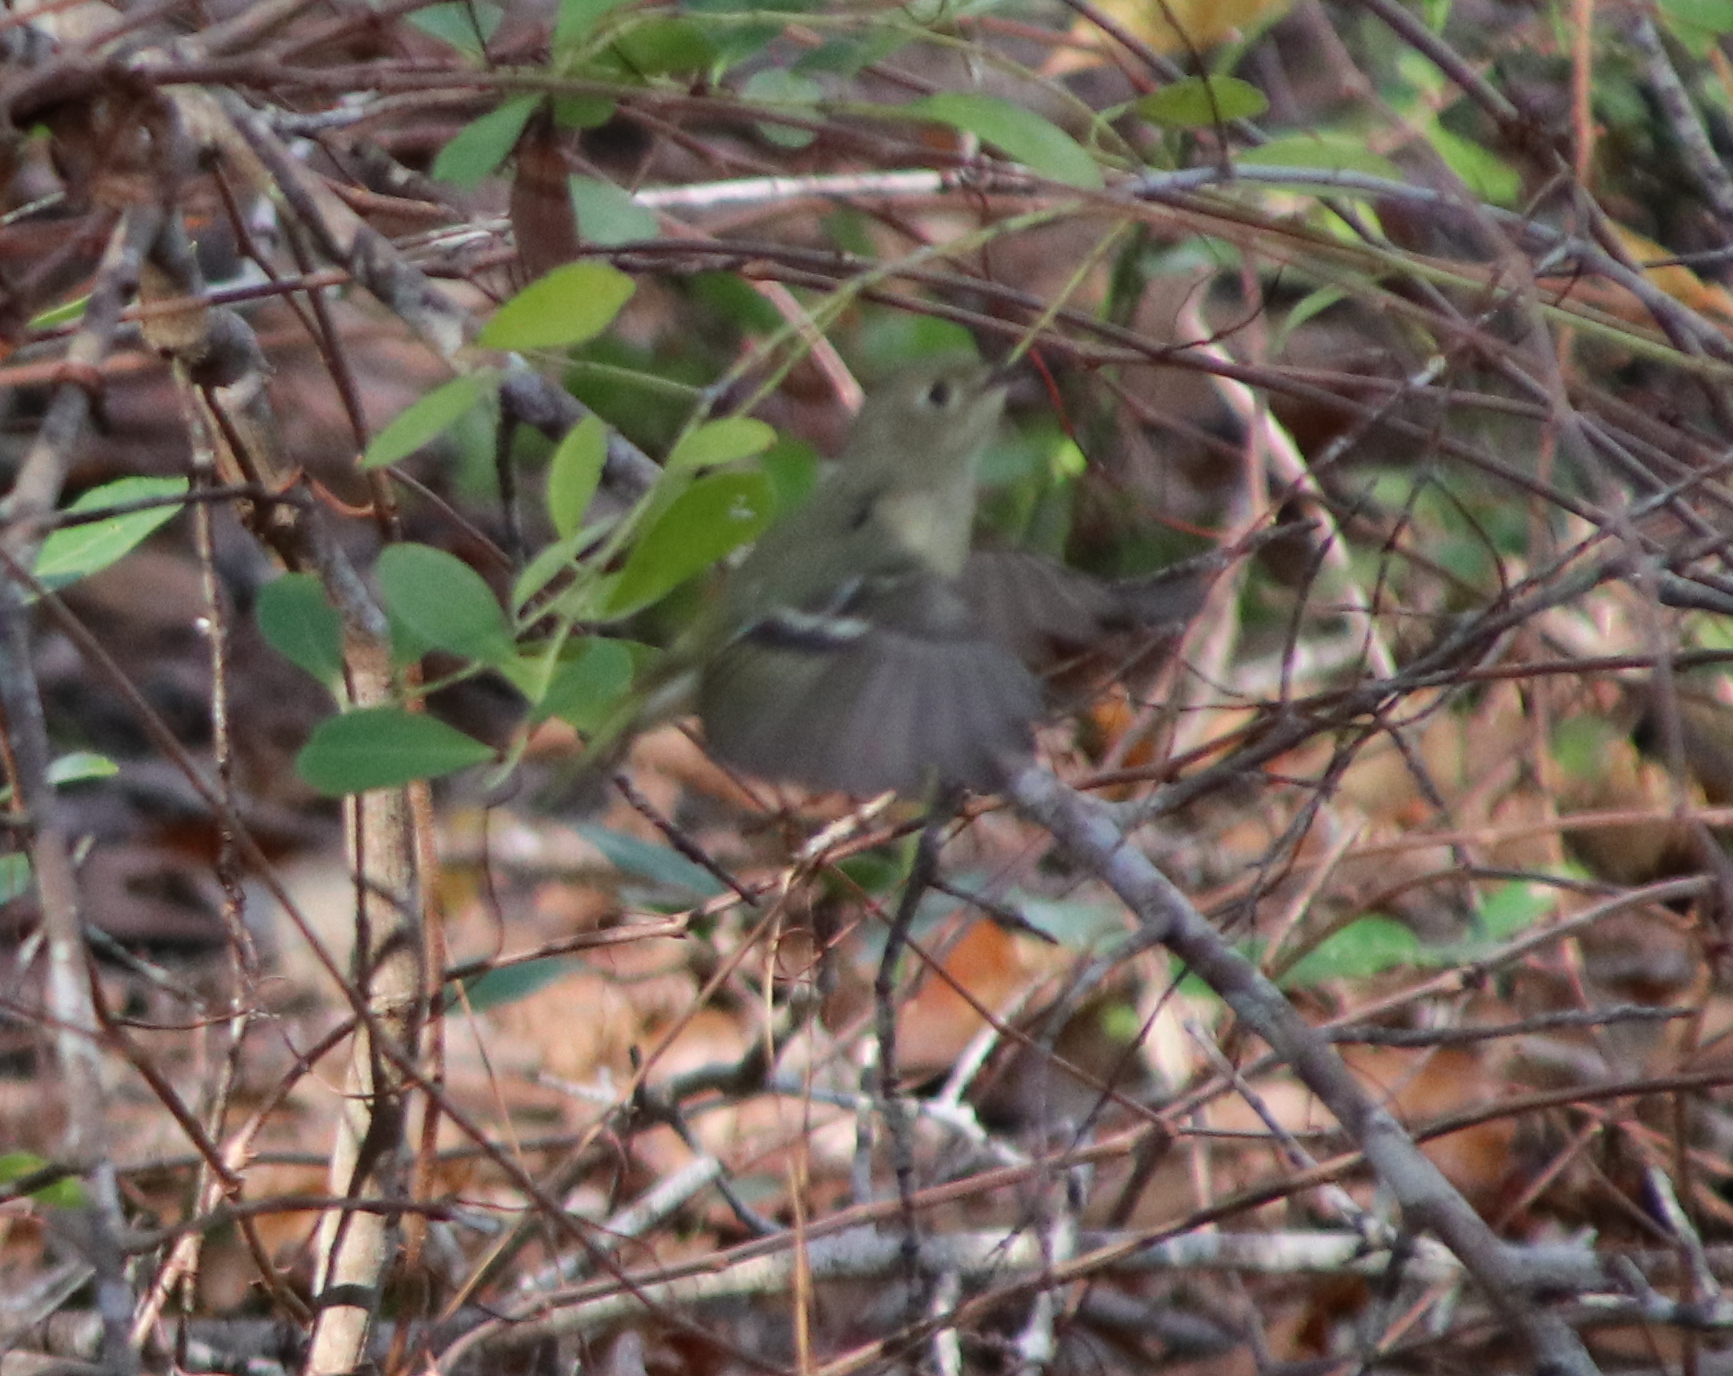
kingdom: Animalia
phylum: Chordata
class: Aves
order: Passeriformes
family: Regulidae
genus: Regulus
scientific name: Regulus calendula
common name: Ruby-crowned kinglet
